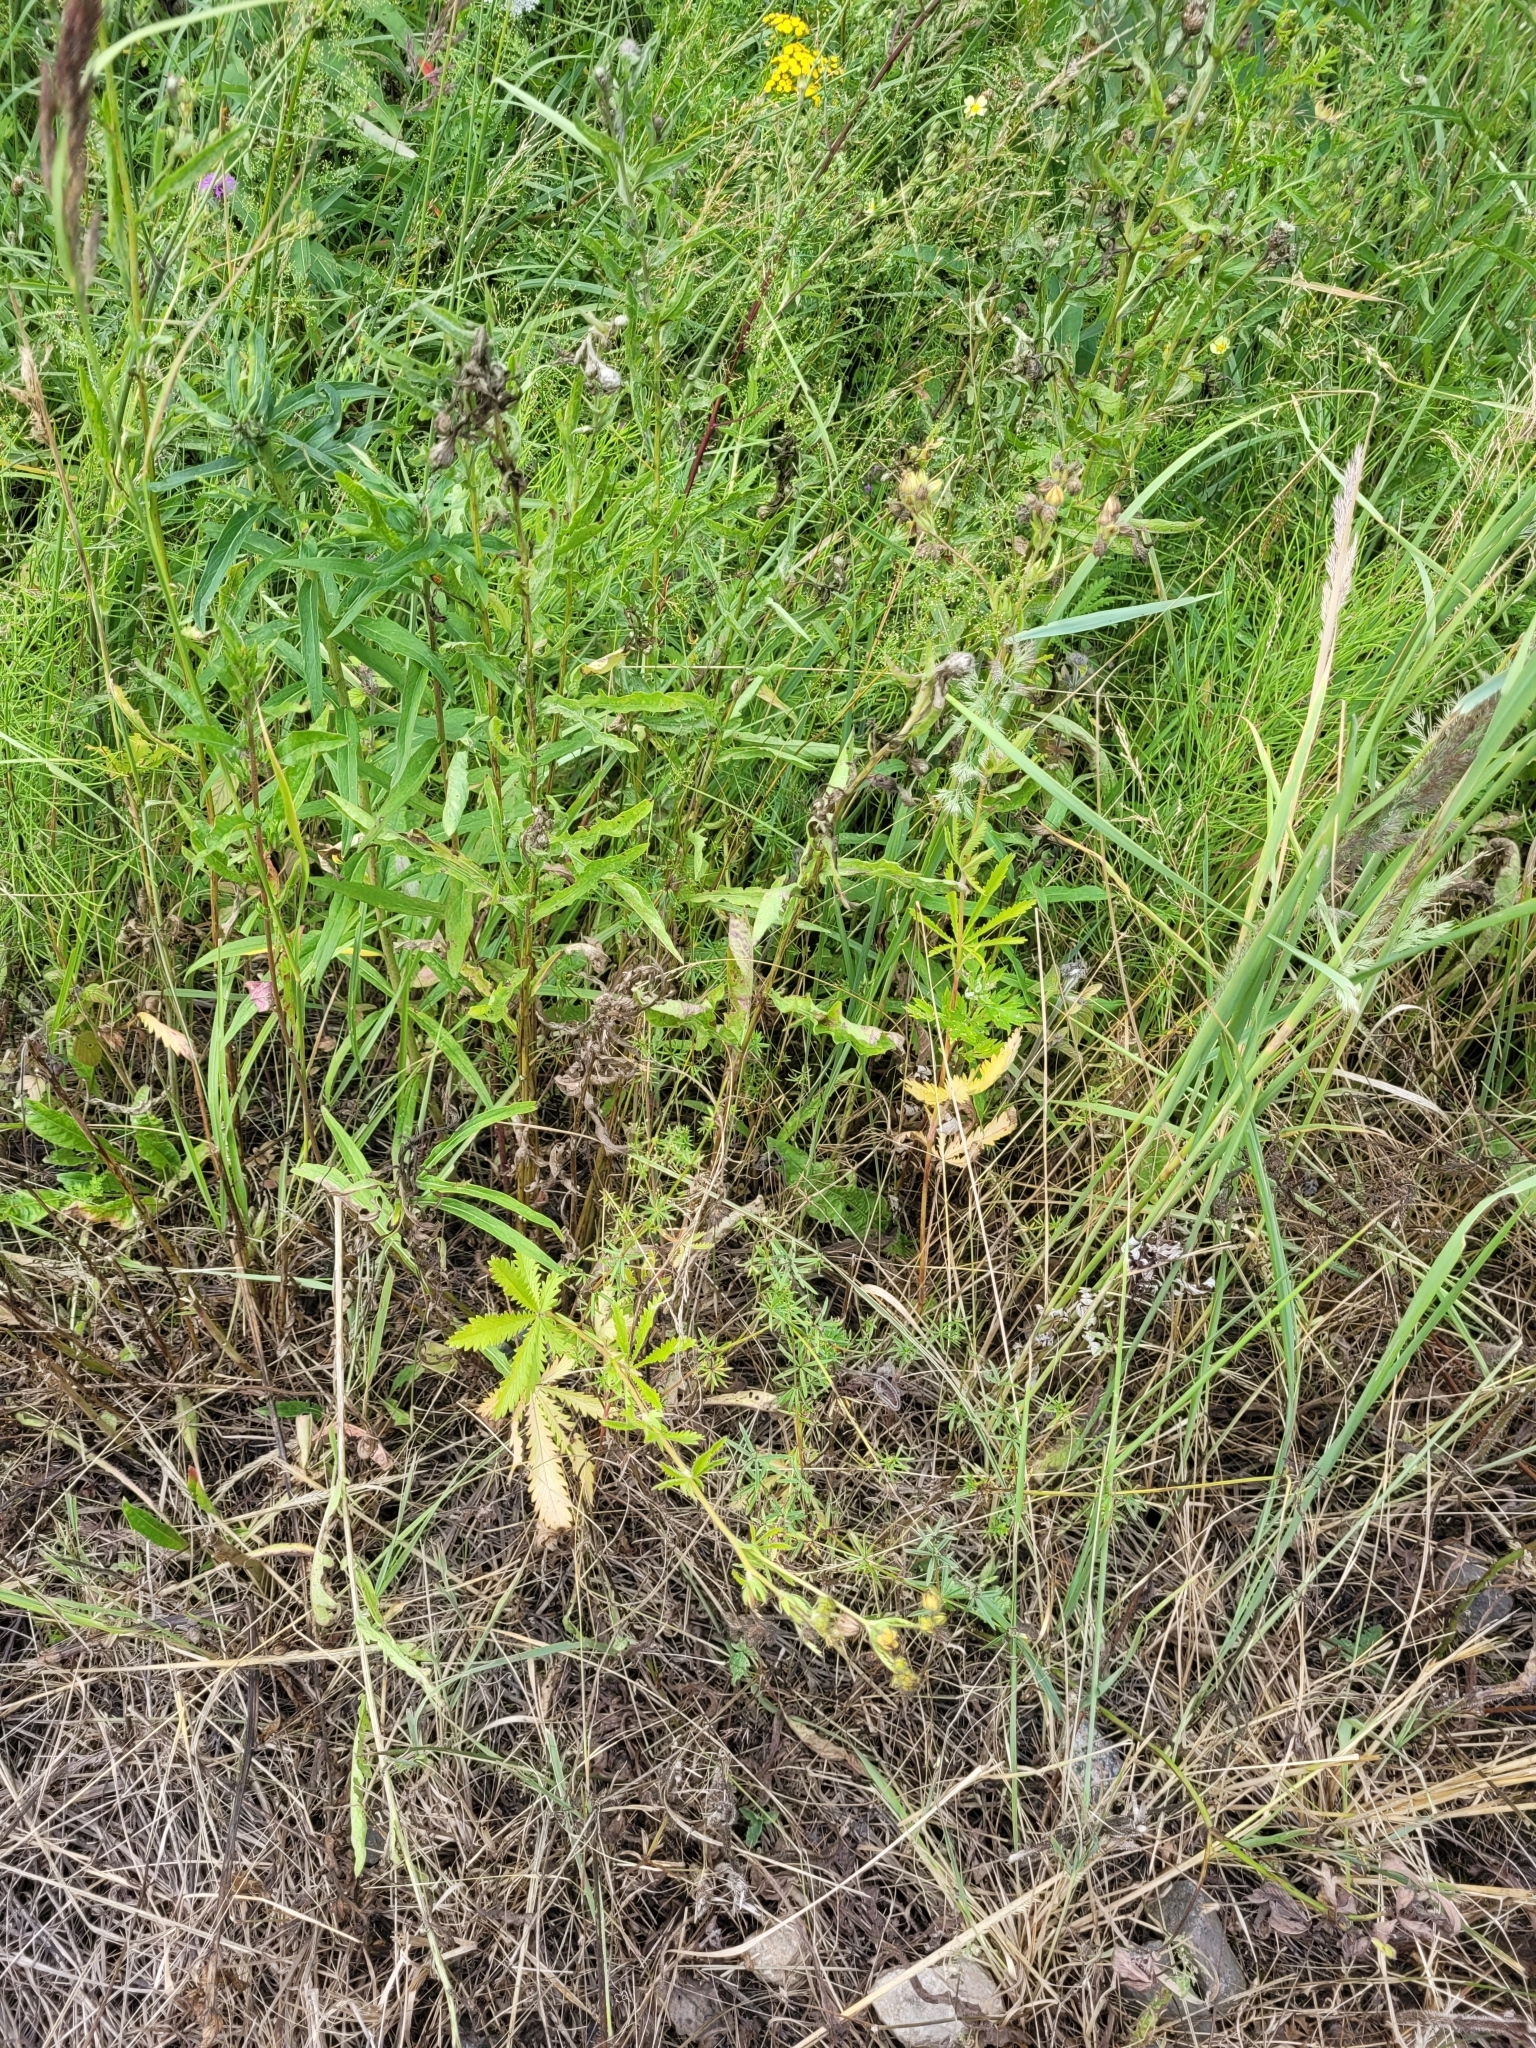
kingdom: Plantae
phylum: Tracheophyta
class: Magnoliopsida
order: Rosales
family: Rosaceae
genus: Potentilla
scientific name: Potentilla recta
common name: Sulphur cinquefoil
